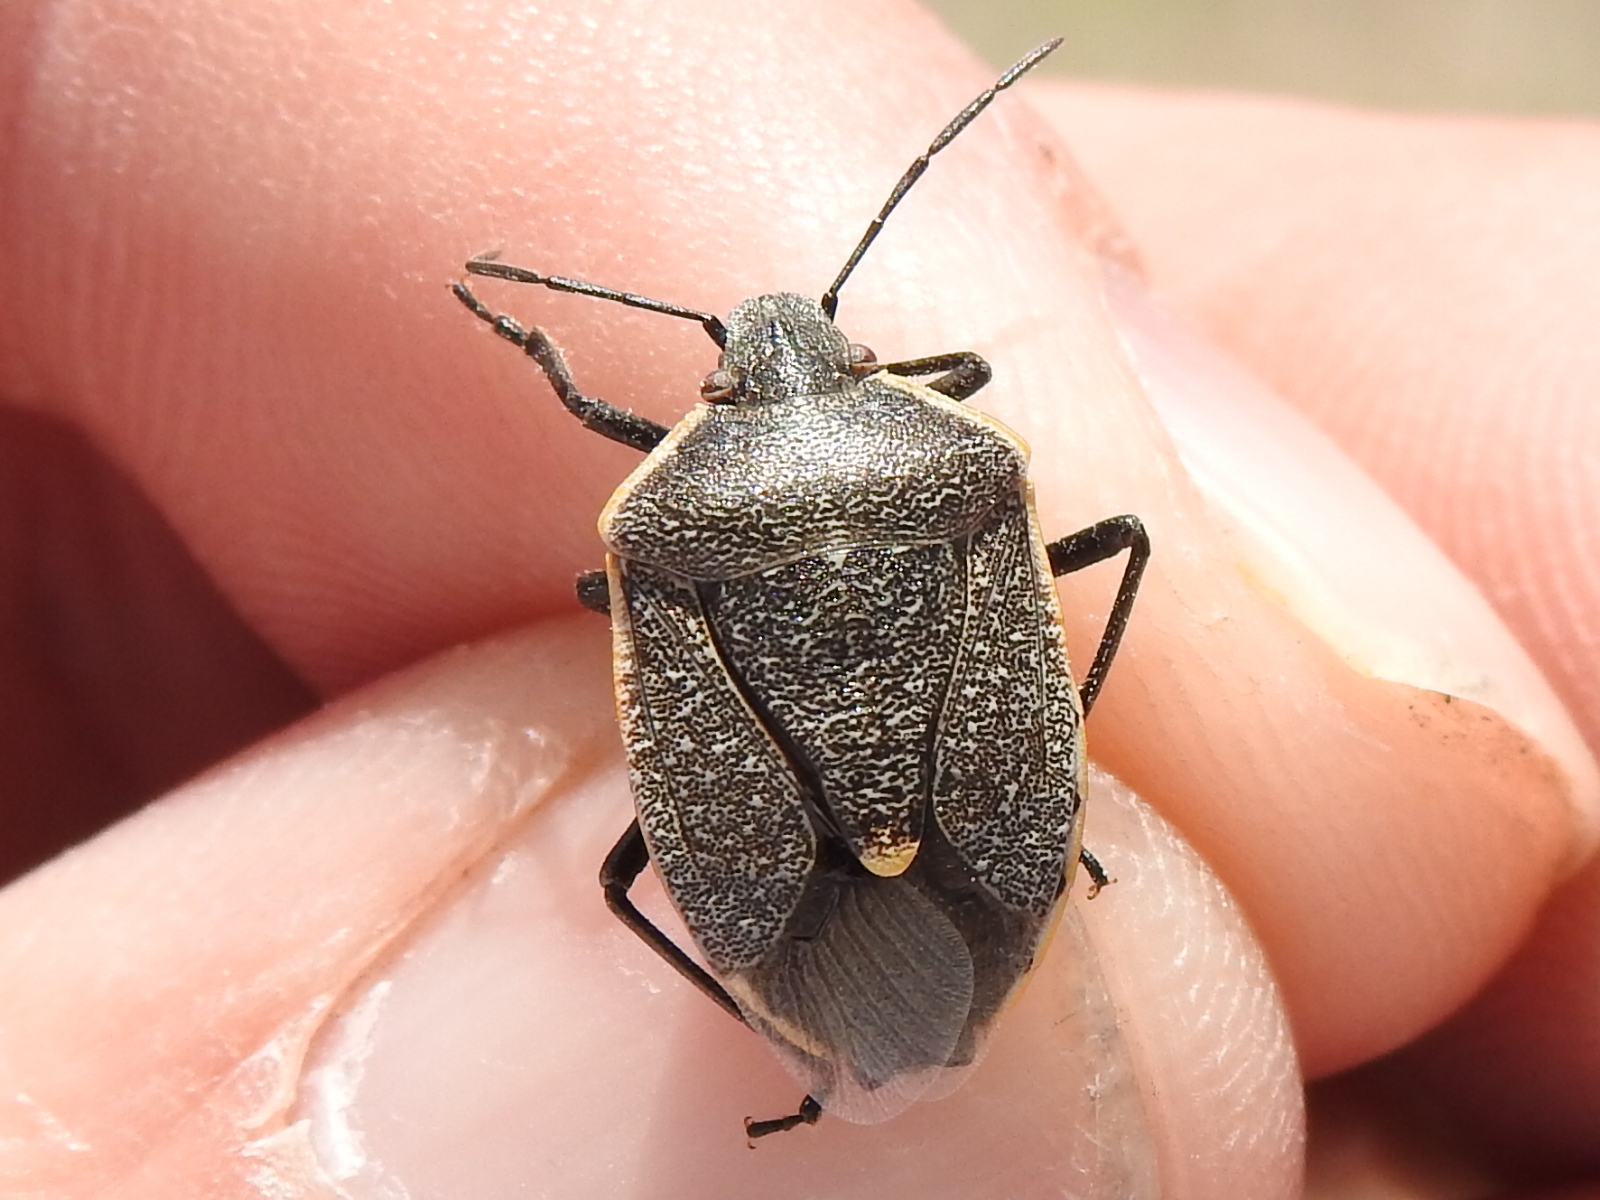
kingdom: Animalia
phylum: Arthropoda
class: Insecta
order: Hemiptera
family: Pentatomidae
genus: Chlorochroa
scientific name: Chlorochroa ligata
